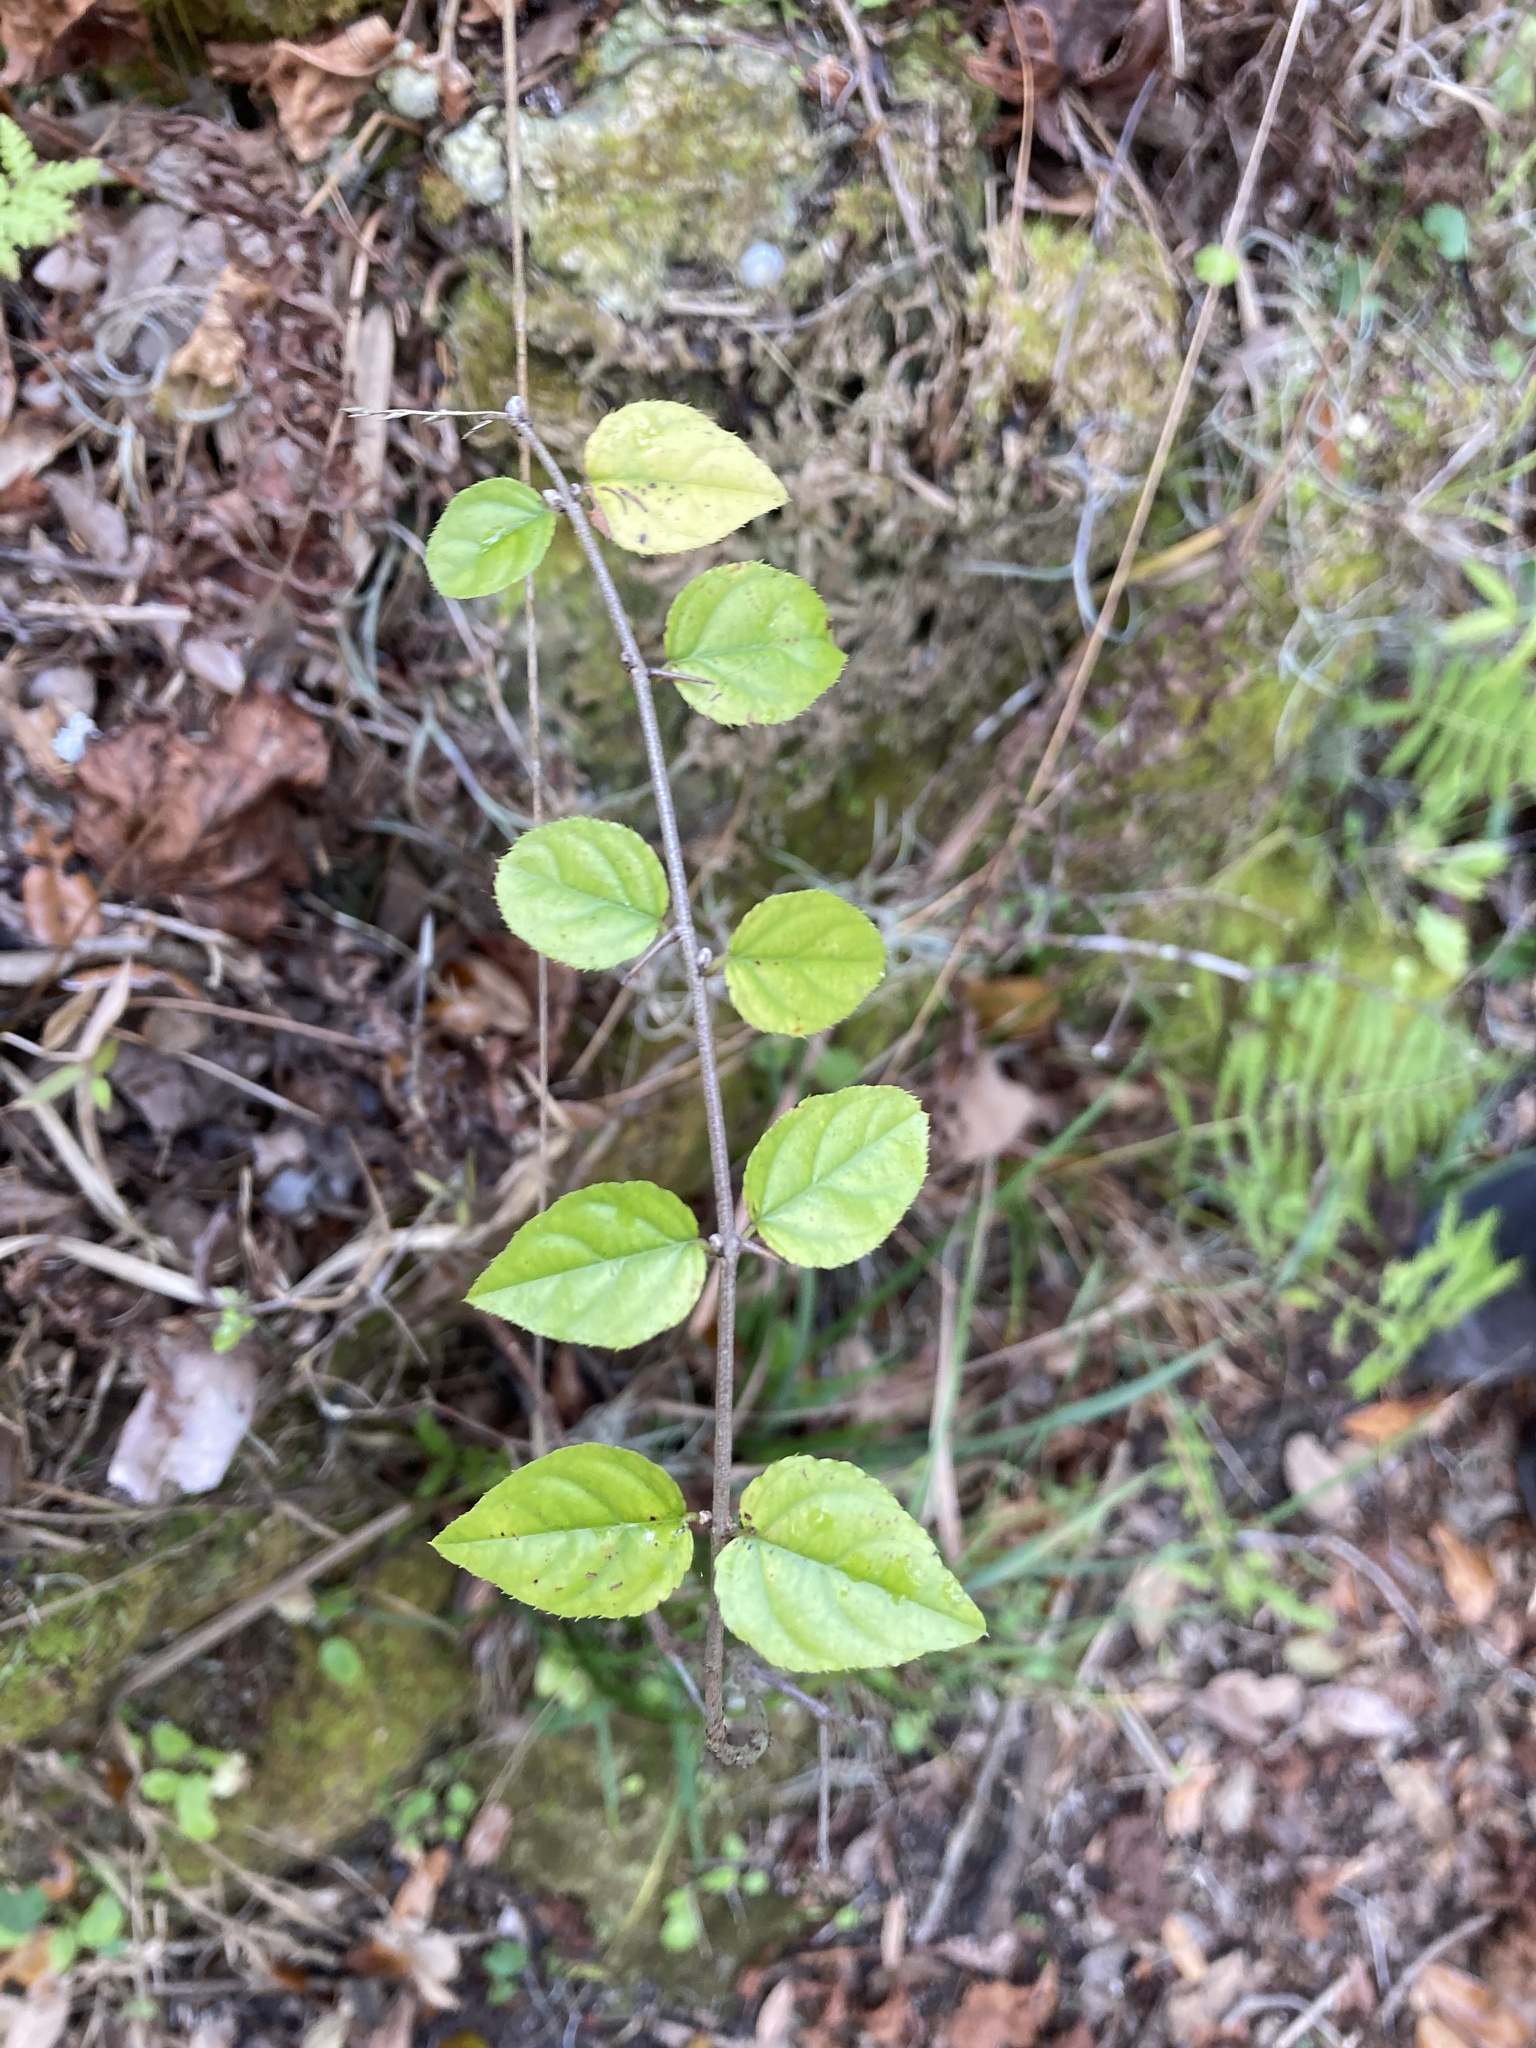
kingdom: Plantae
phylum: Tracheophyta
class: Magnoliopsida
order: Rosales
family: Rhamnaceae
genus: Sageretia
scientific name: Sageretia minutiflora
